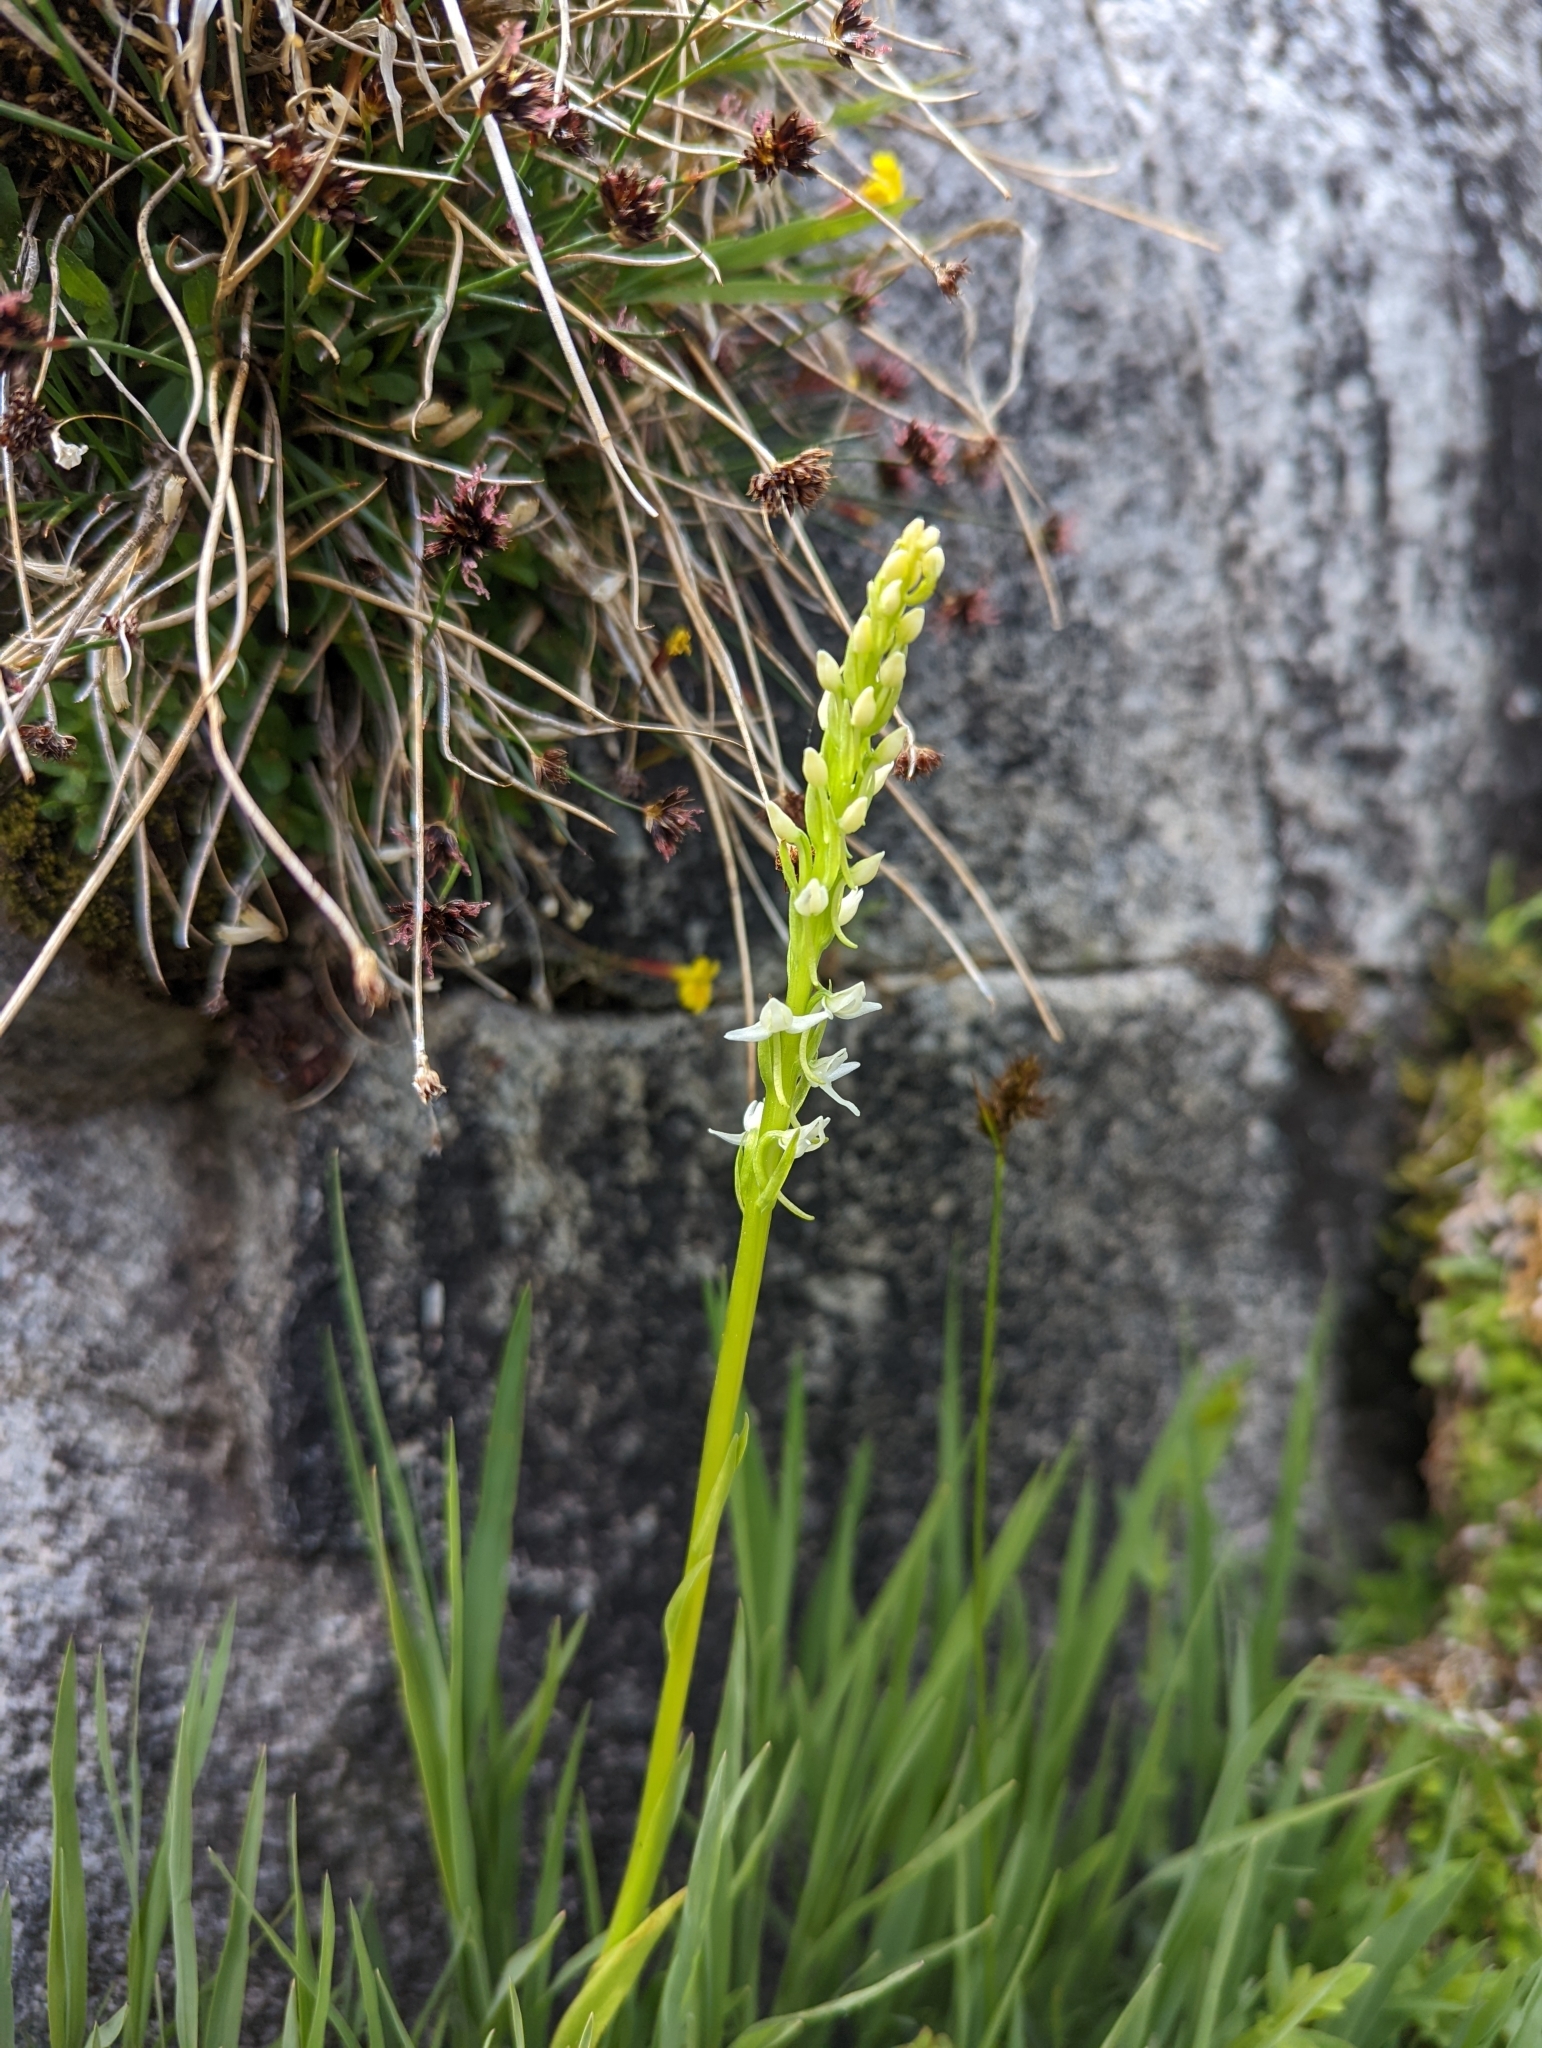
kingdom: Plantae
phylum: Tracheophyta
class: Liliopsida
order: Asparagales
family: Orchidaceae
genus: Platanthera
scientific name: Platanthera dilatata
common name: Bog candles
